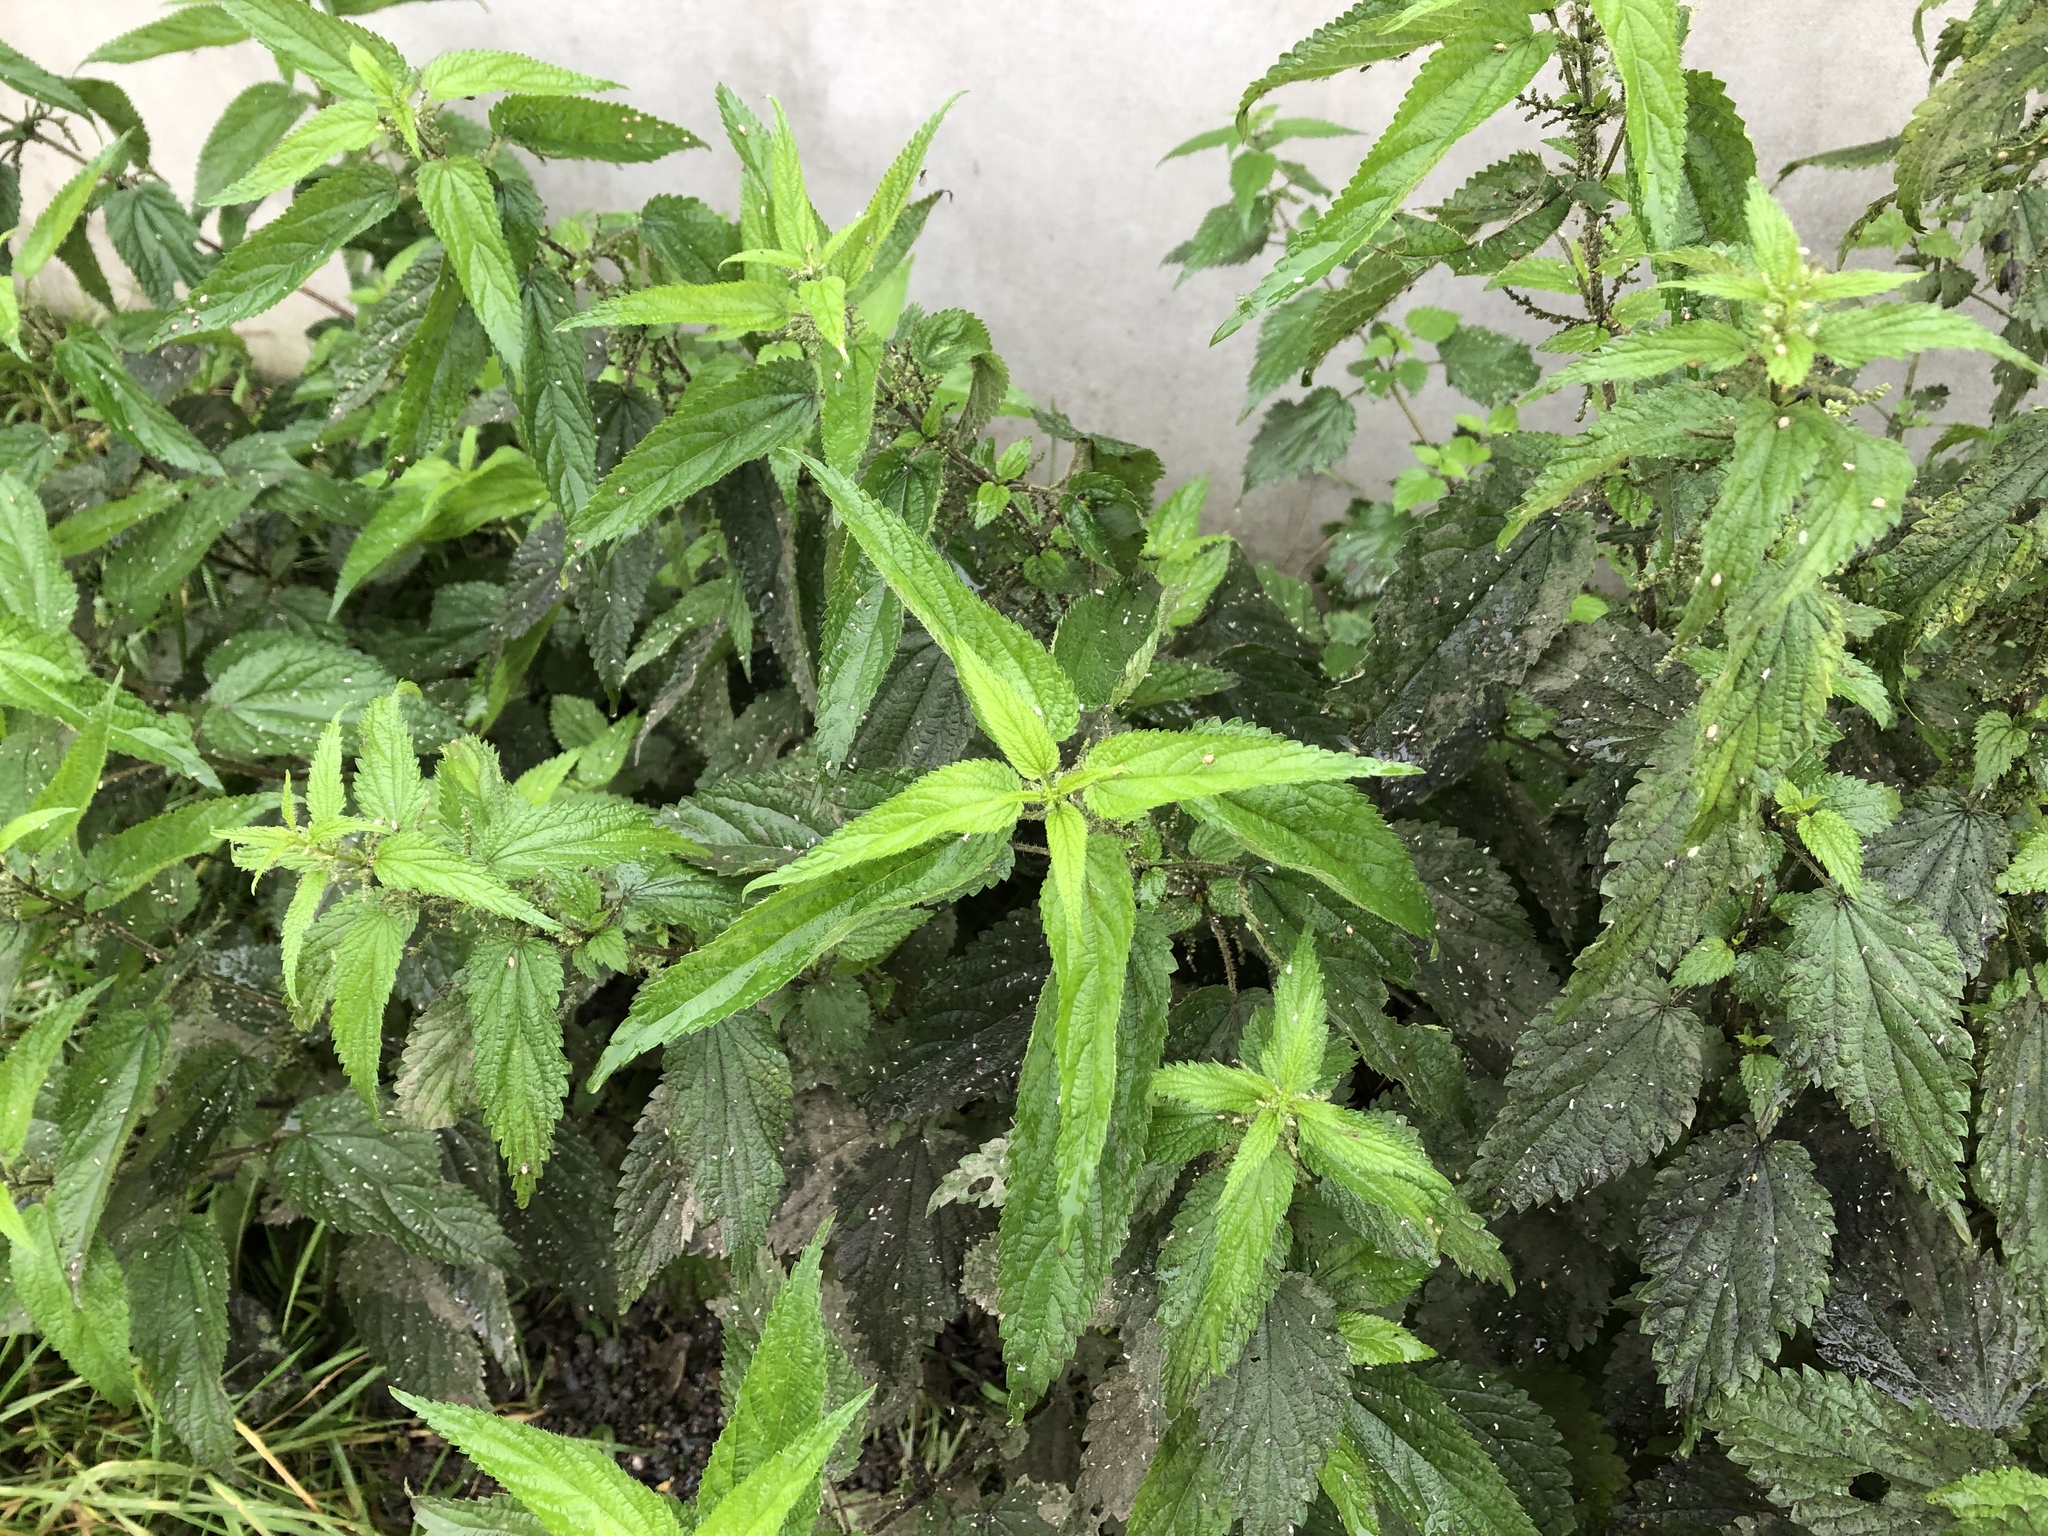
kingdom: Plantae
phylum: Tracheophyta
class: Magnoliopsida
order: Rosales
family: Urticaceae
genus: Urtica
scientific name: Urtica dioica
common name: Common nettle
